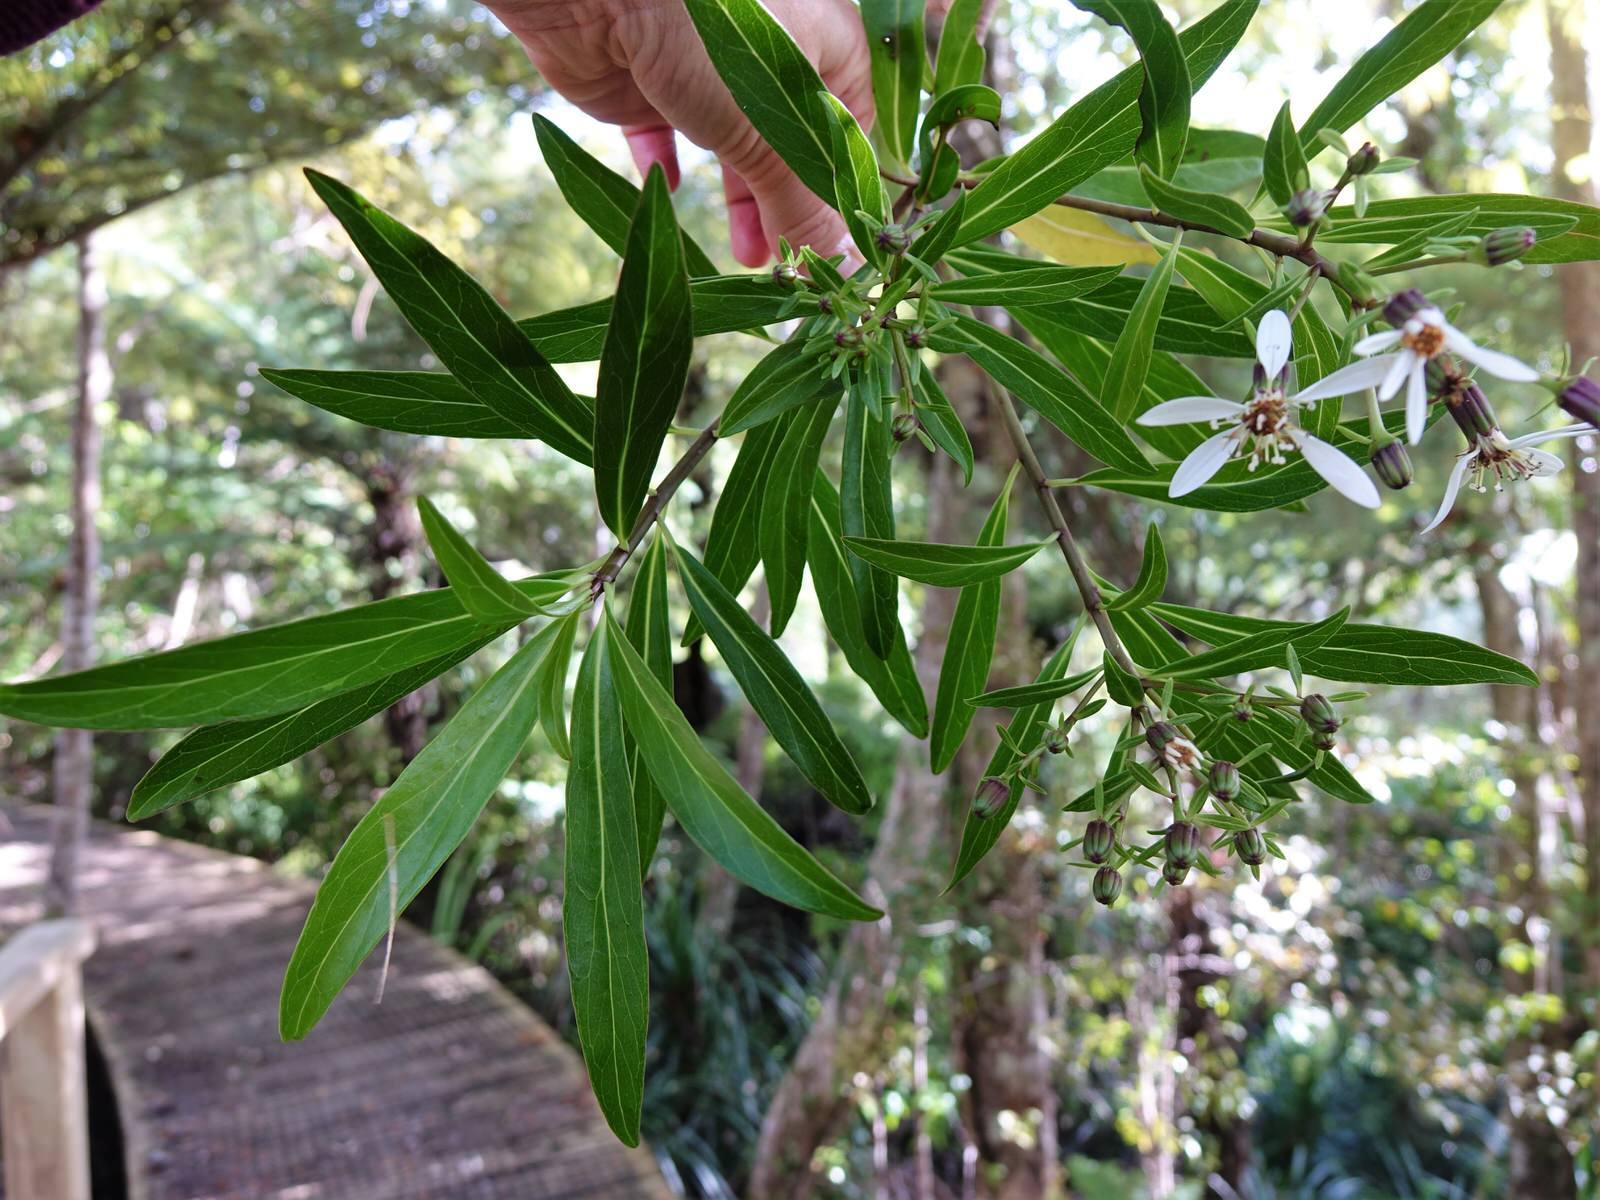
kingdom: Plantae
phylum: Tracheophyta
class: Magnoliopsida
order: Asterales
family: Asteraceae
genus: Brachyglottis
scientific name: Brachyglottis kirkii
